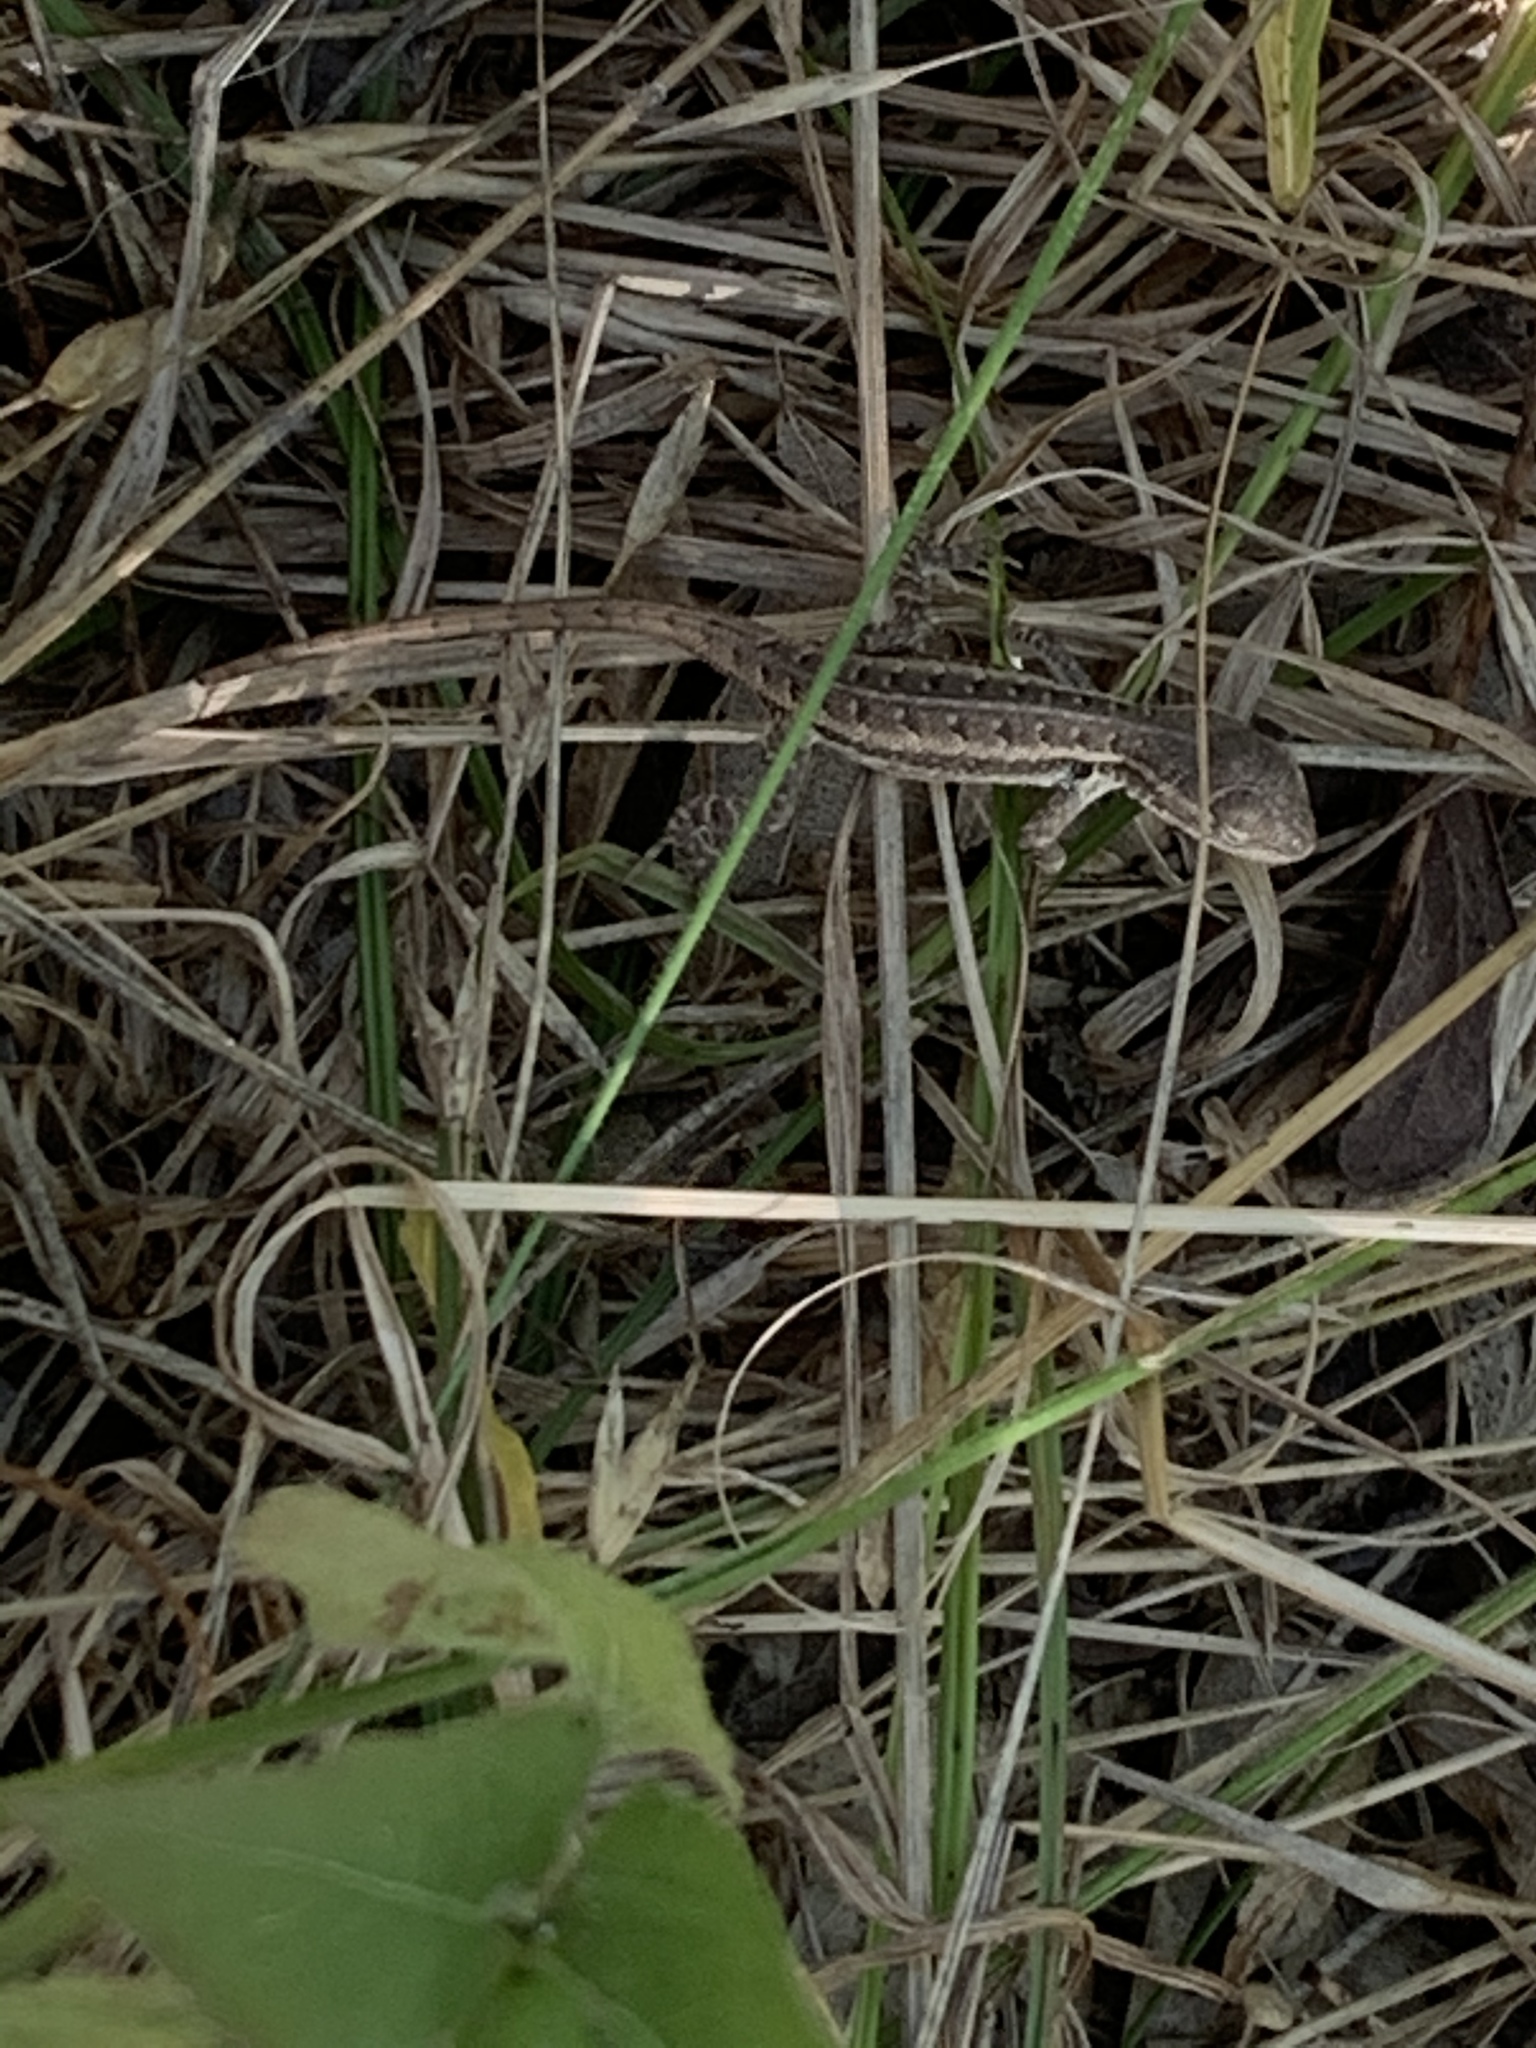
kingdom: Animalia
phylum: Chordata
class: Squamata
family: Phrynosomatidae
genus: Sceloporus
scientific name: Sceloporus variabilis
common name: Rosebelly lizard
